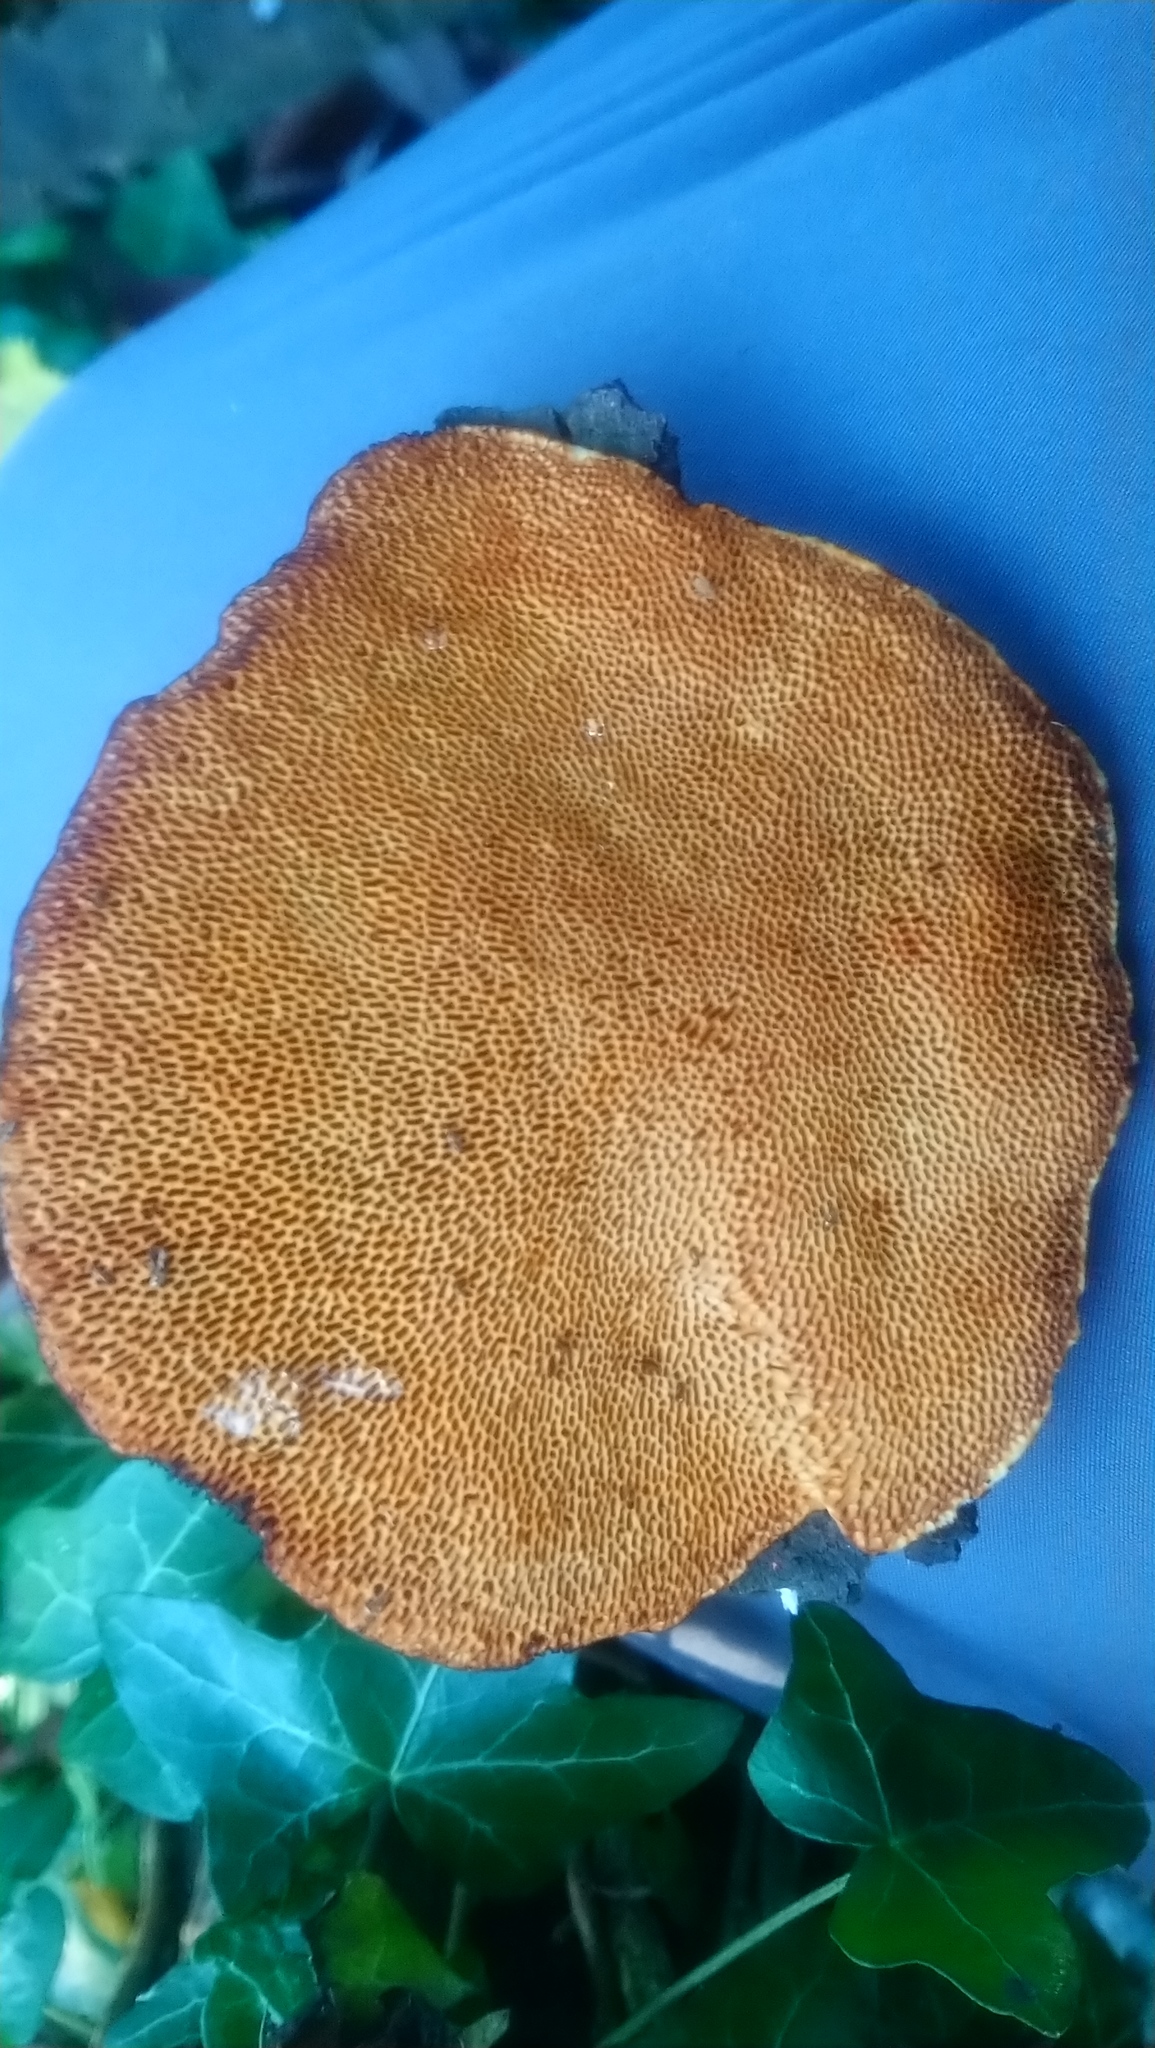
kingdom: Fungi
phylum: Basidiomycota
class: Agaricomycetes
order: Polyporales
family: Polyporaceae
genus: Daedaleopsis
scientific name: Daedaleopsis confragosa
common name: Blushing bracket
